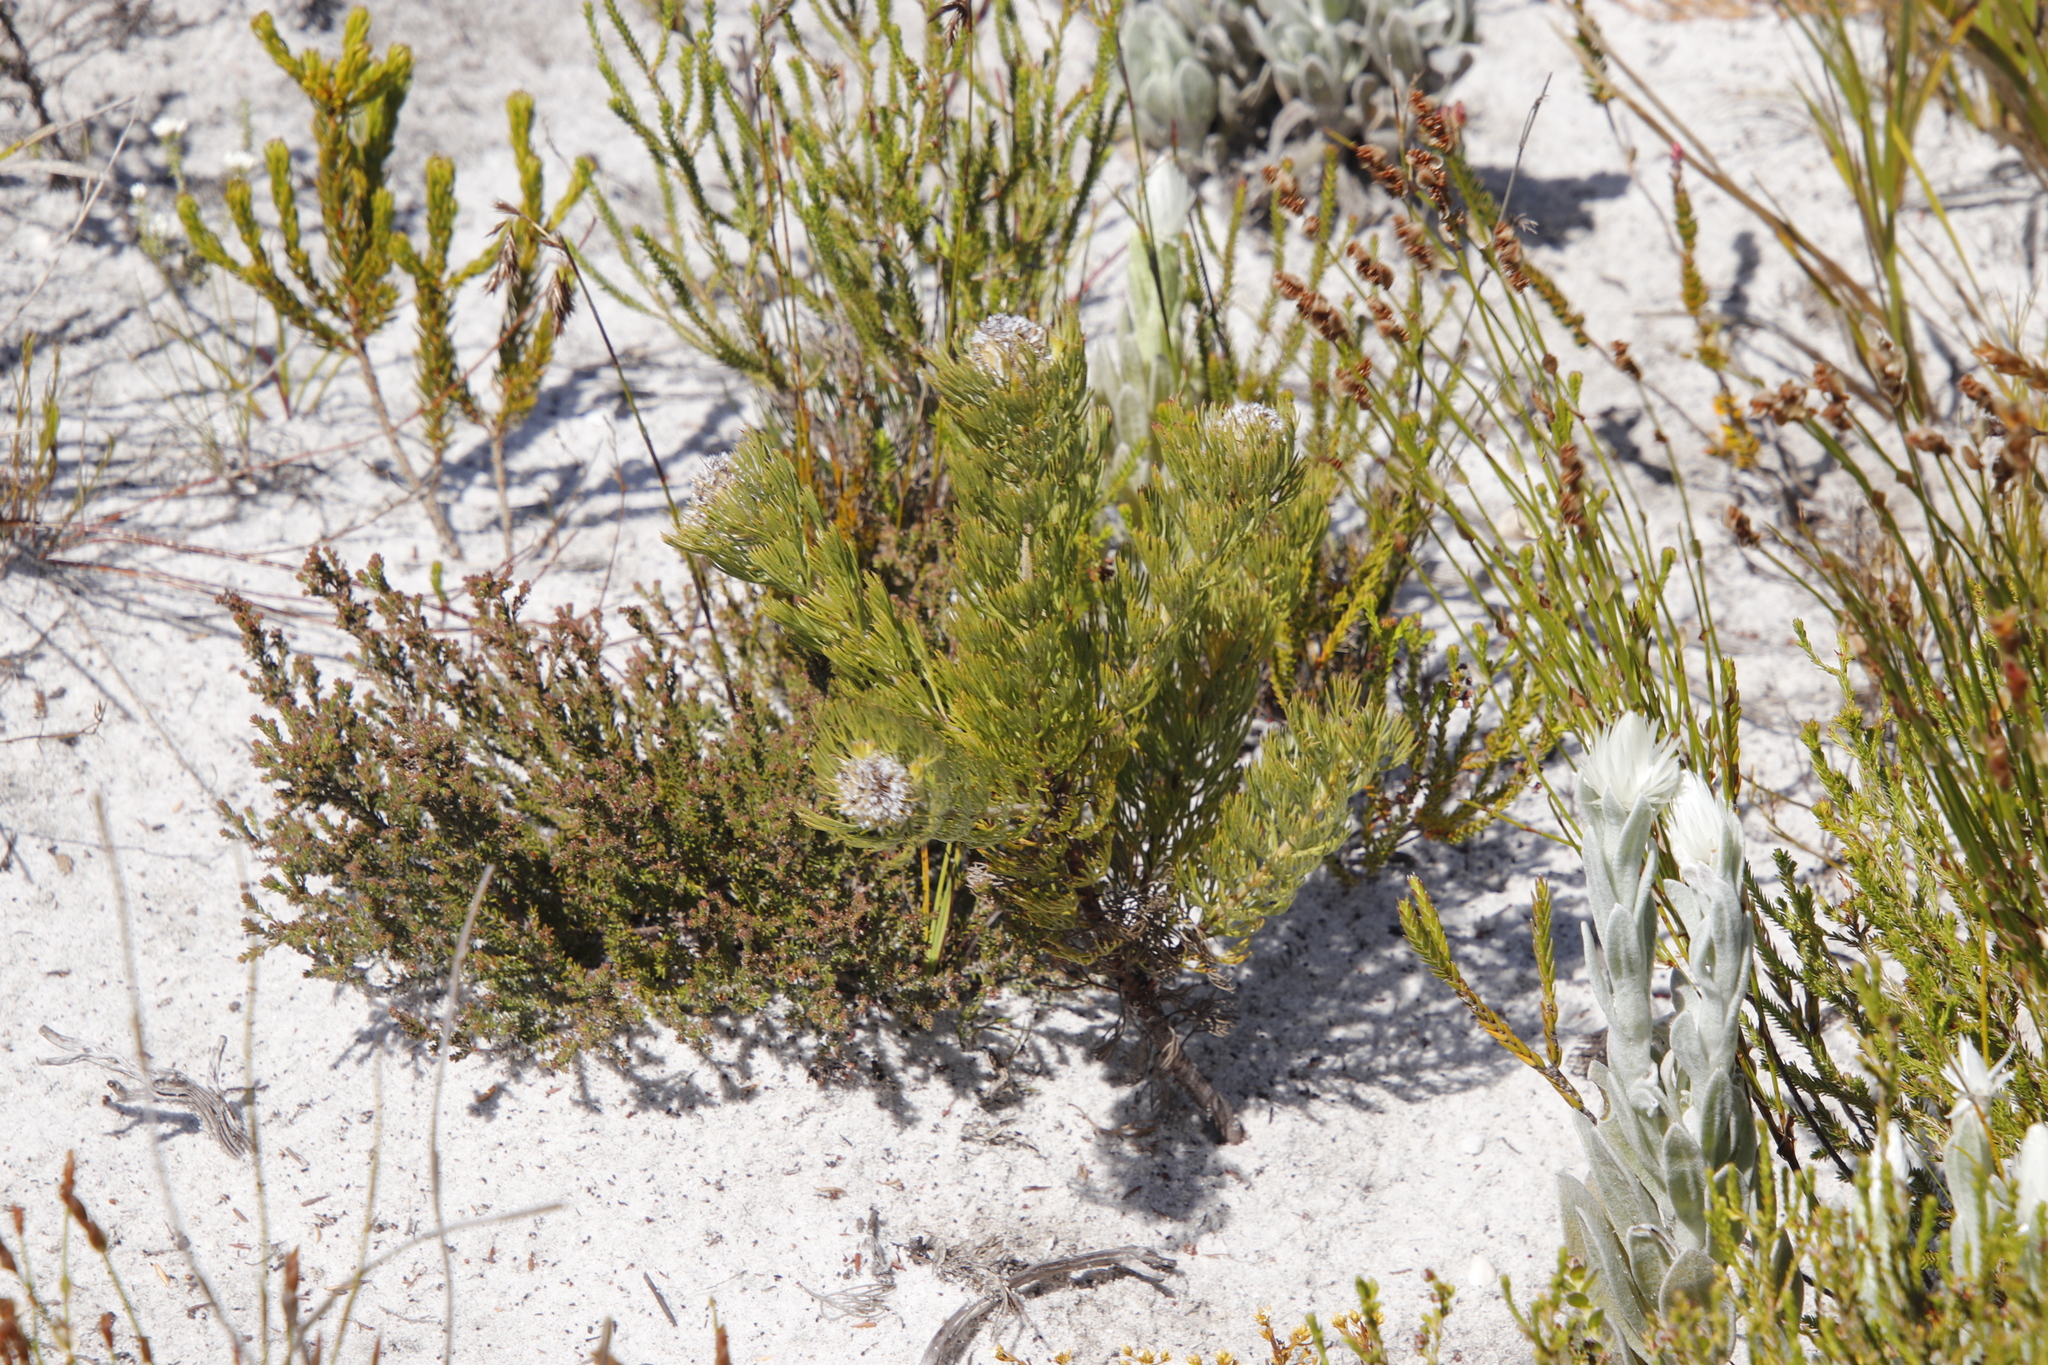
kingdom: Plantae
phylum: Tracheophyta
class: Magnoliopsida
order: Proteales
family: Proteaceae
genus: Serruria
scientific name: Serruria villosa
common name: Golden spiderhead
